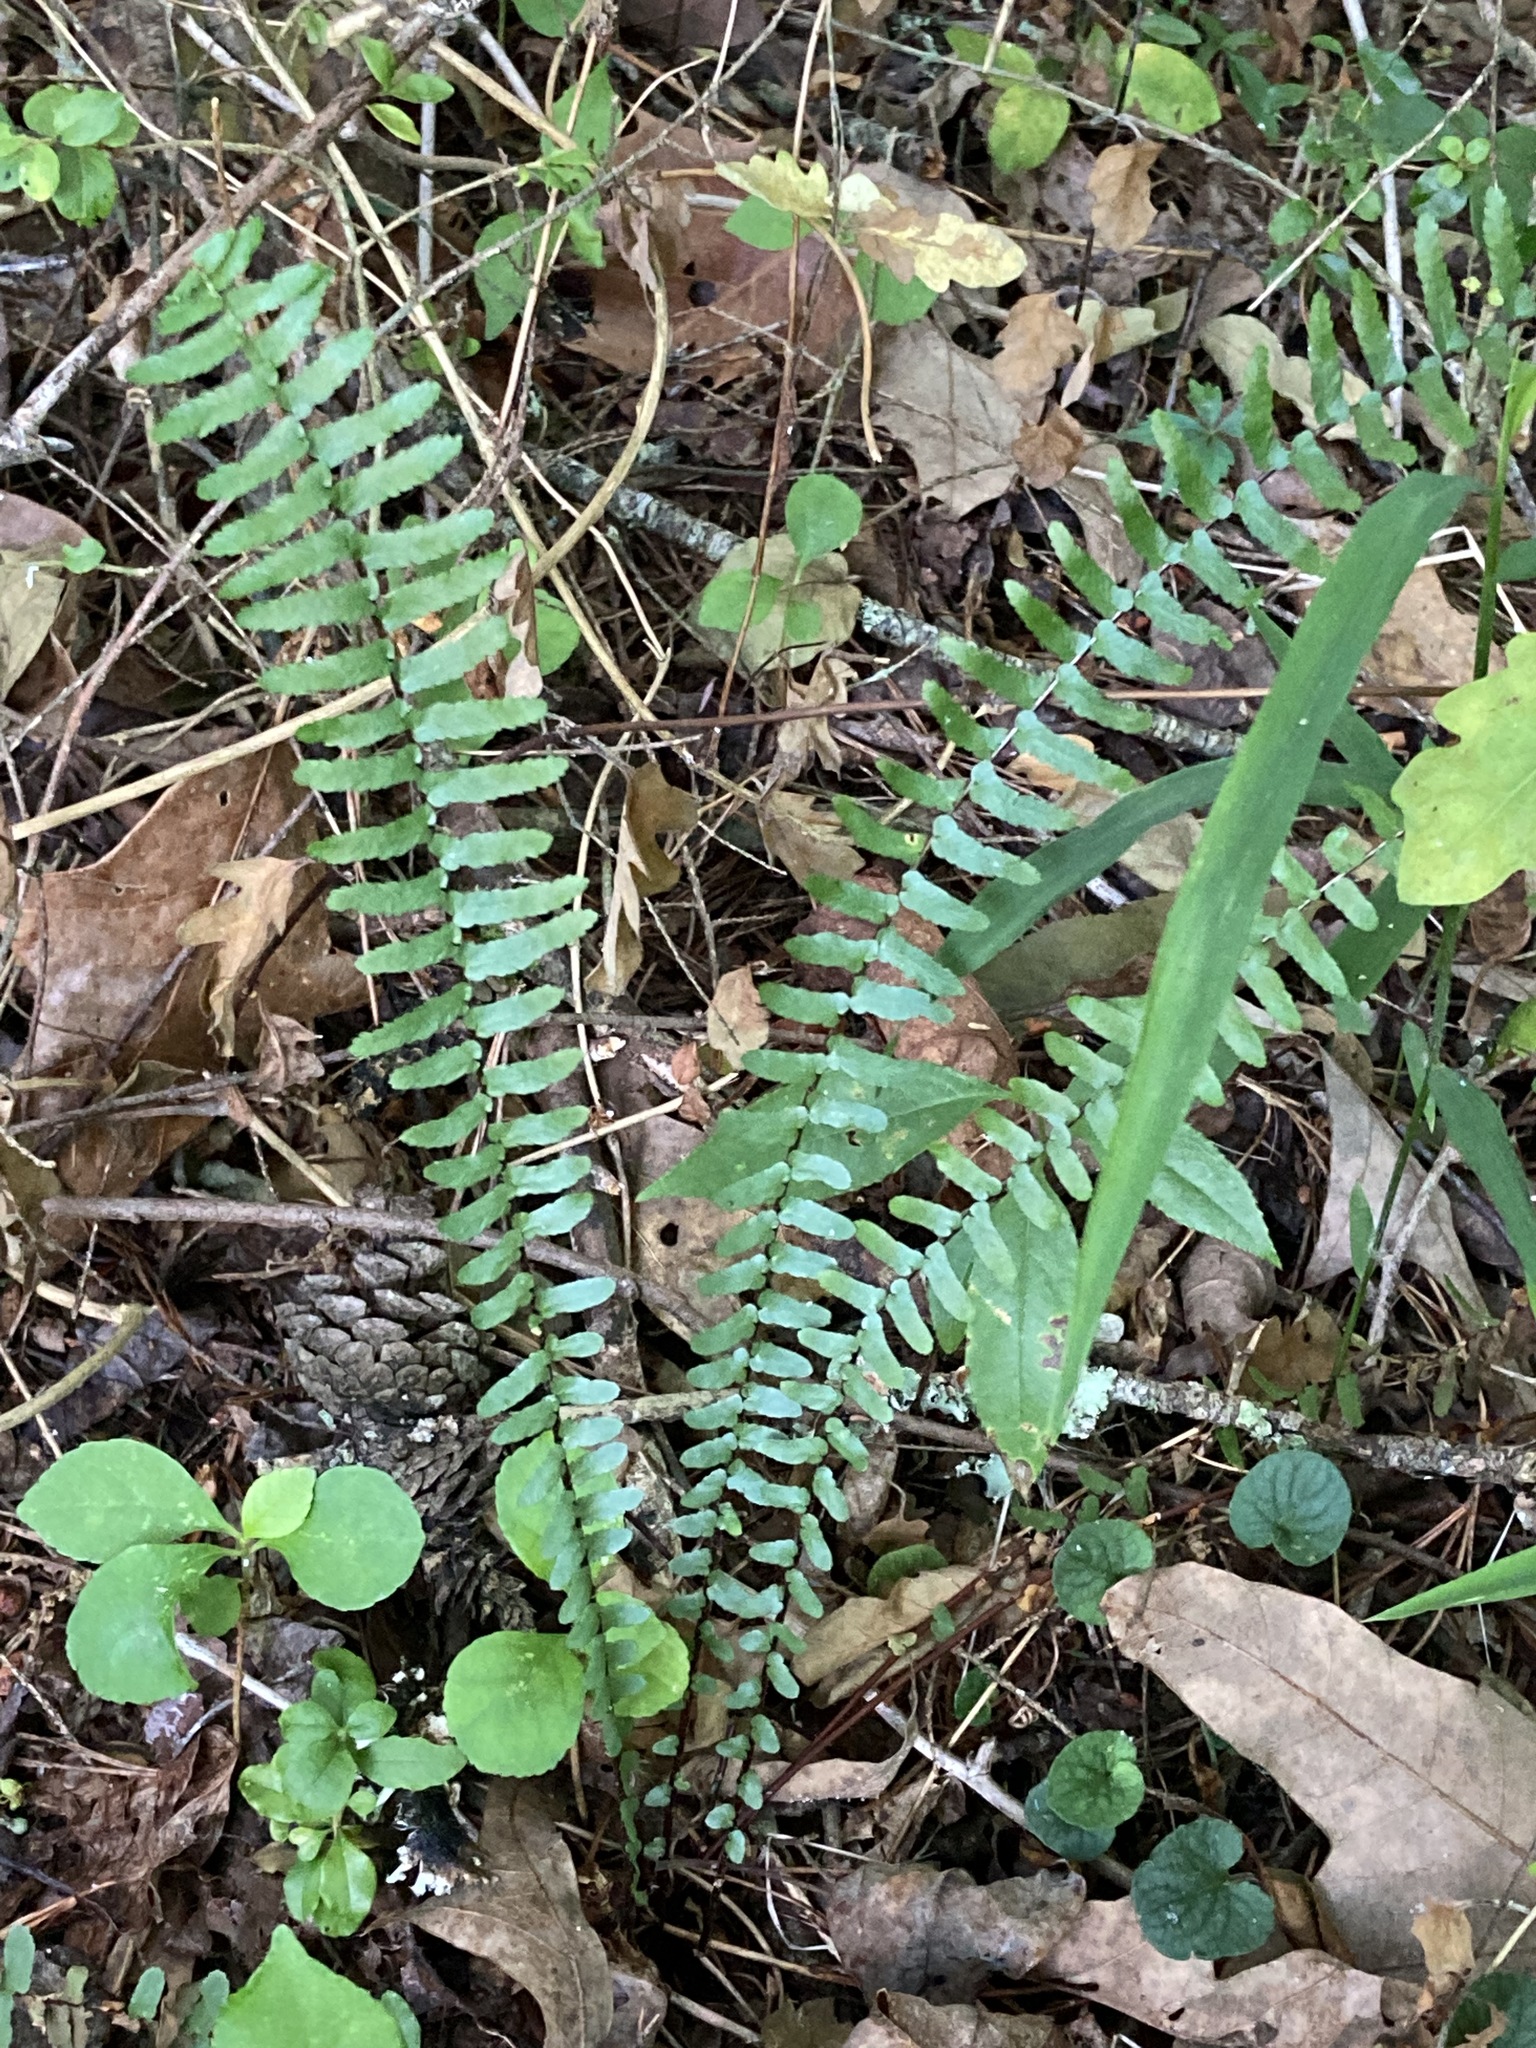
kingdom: Plantae
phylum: Tracheophyta
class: Polypodiopsida
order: Polypodiales
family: Aspleniaceae
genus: Asplenium
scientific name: Asplenium platyneuron
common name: Ebony spleenwort
